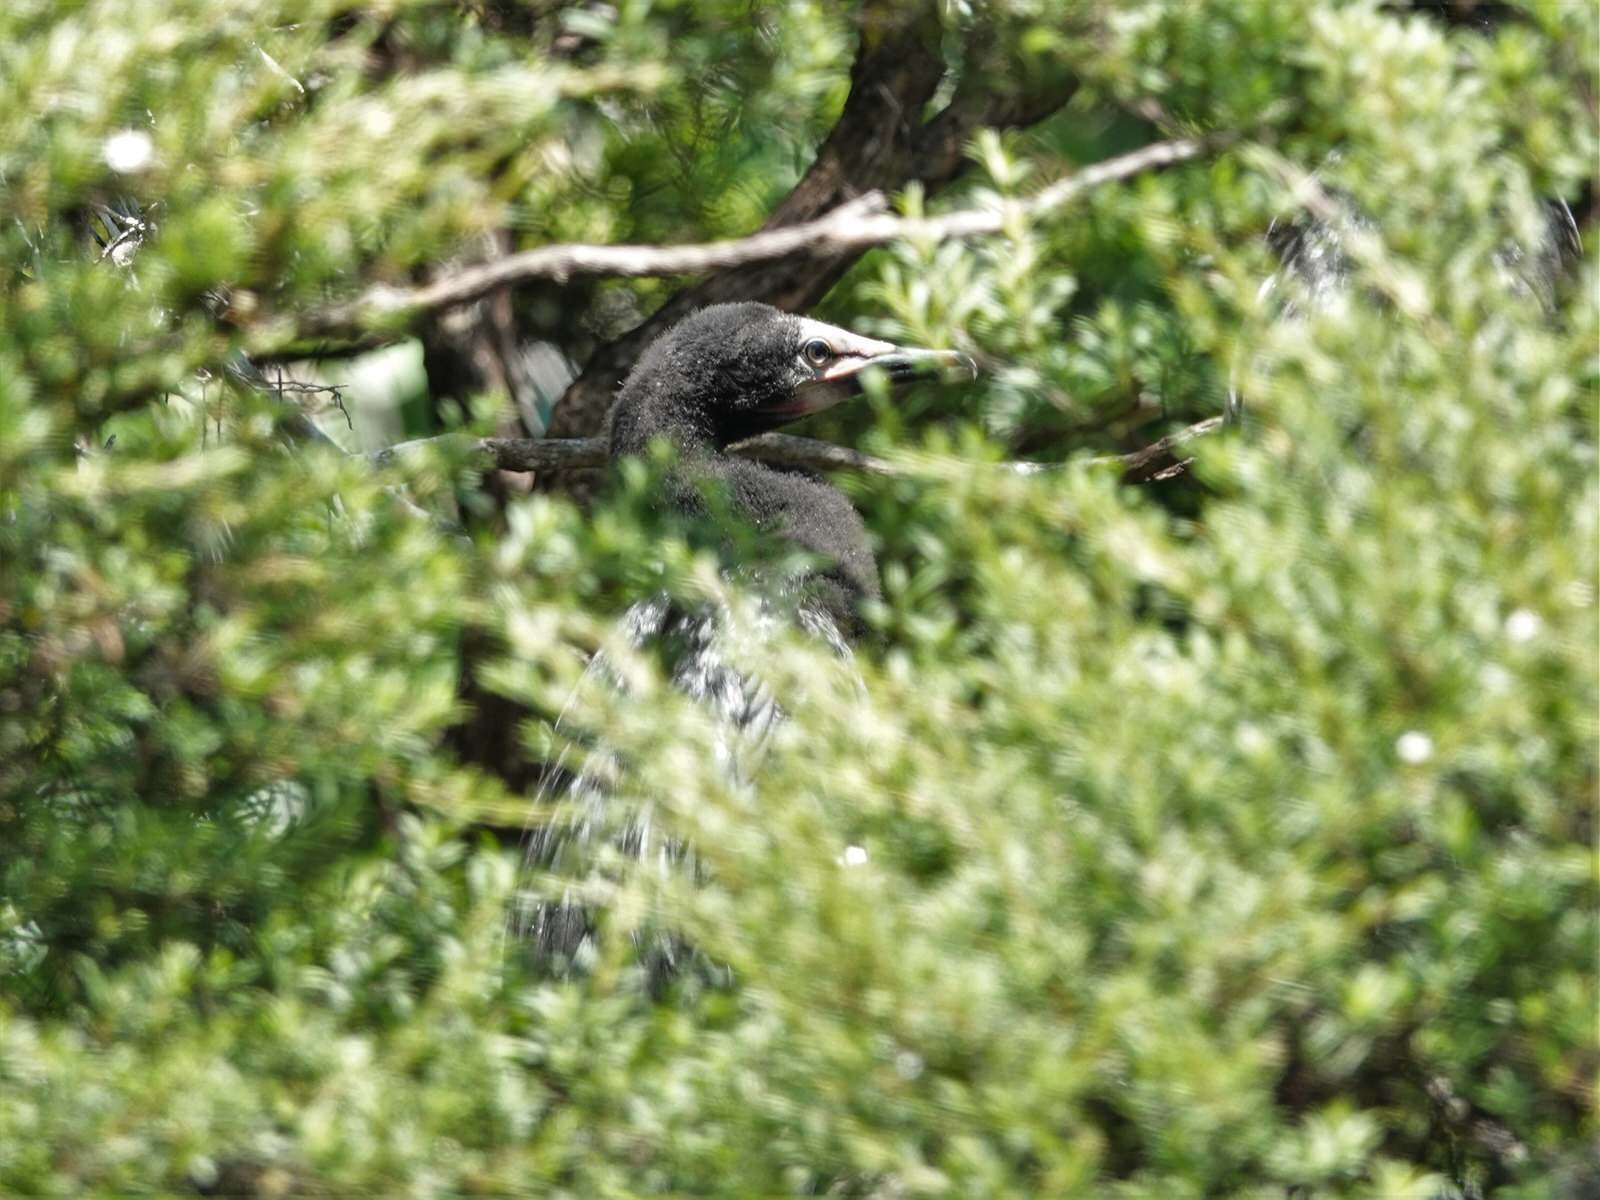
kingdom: Animalia
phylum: Chordata
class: Aves
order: Suliformes
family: Phalacrocoracidae
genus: Microcarbo
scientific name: Microcarbo melanoleucos
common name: Little pied cormorant
